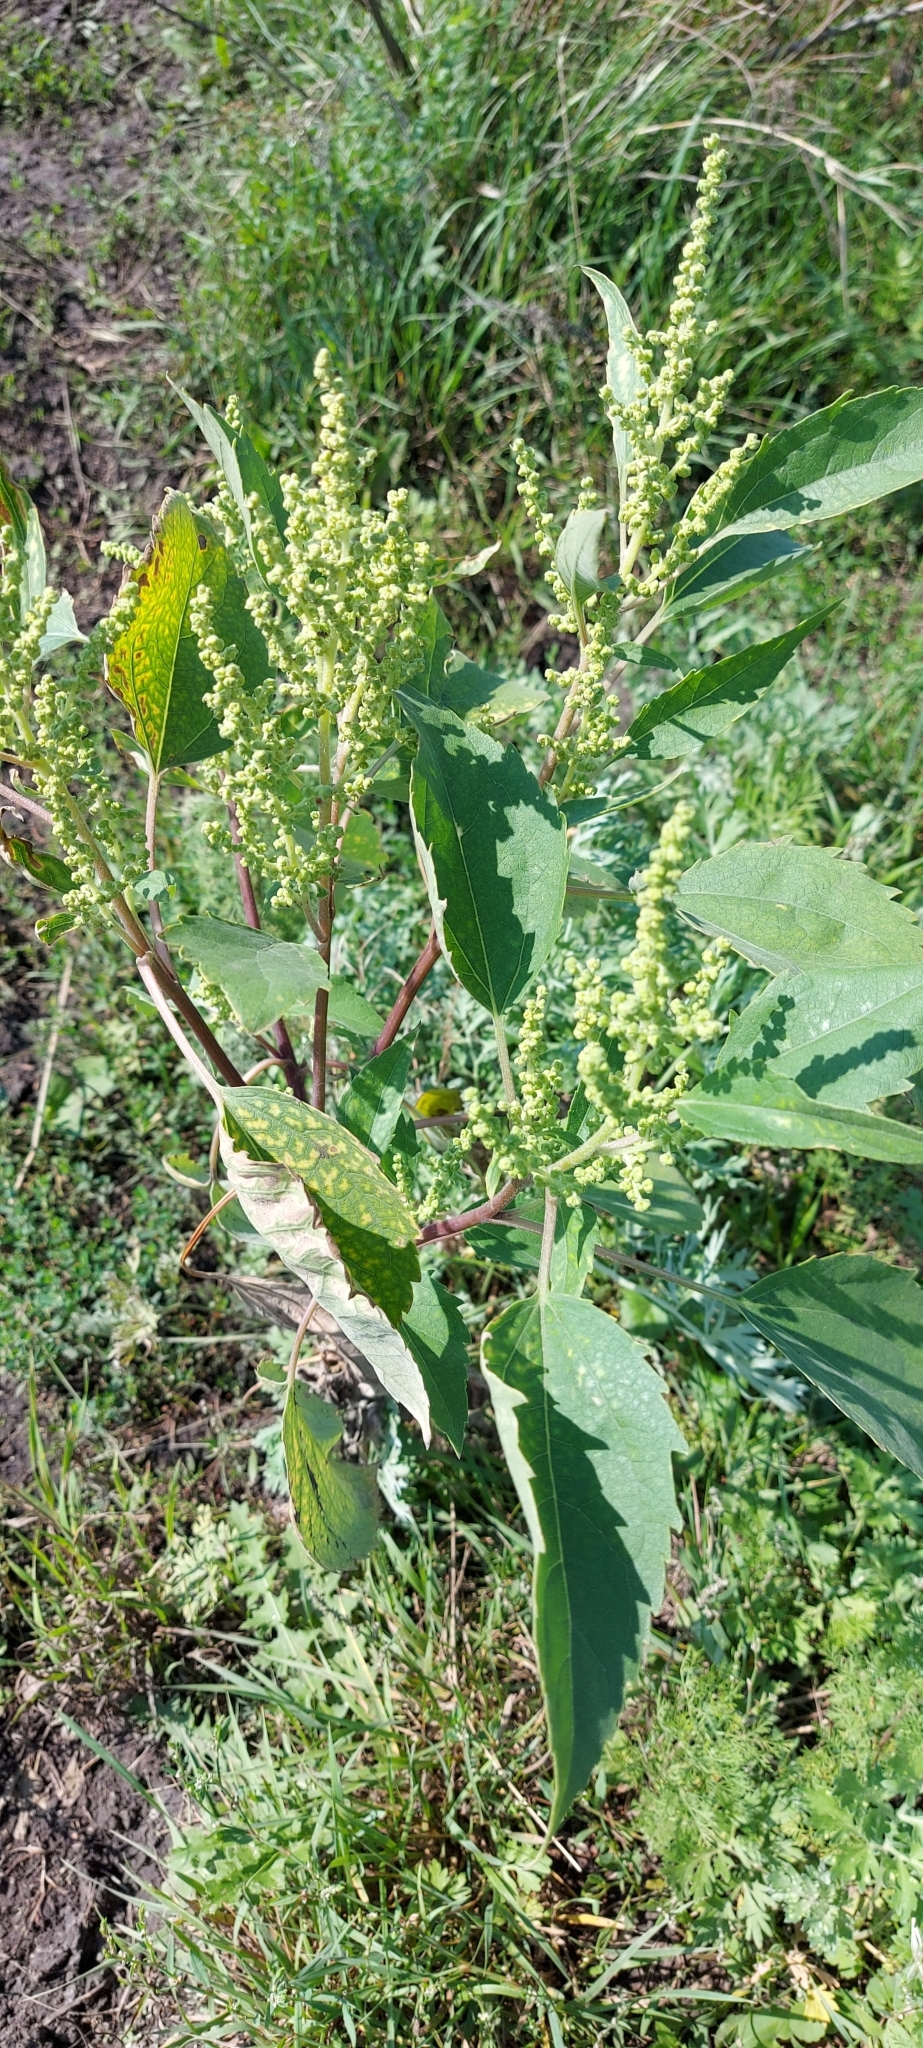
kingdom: Plantae
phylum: Tracheophyta
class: Magnoliopsida
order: Asterales
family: Asteraceae
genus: Cyclachaena
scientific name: Cyclachaena xanthiifolia
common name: Giant sumpweed
